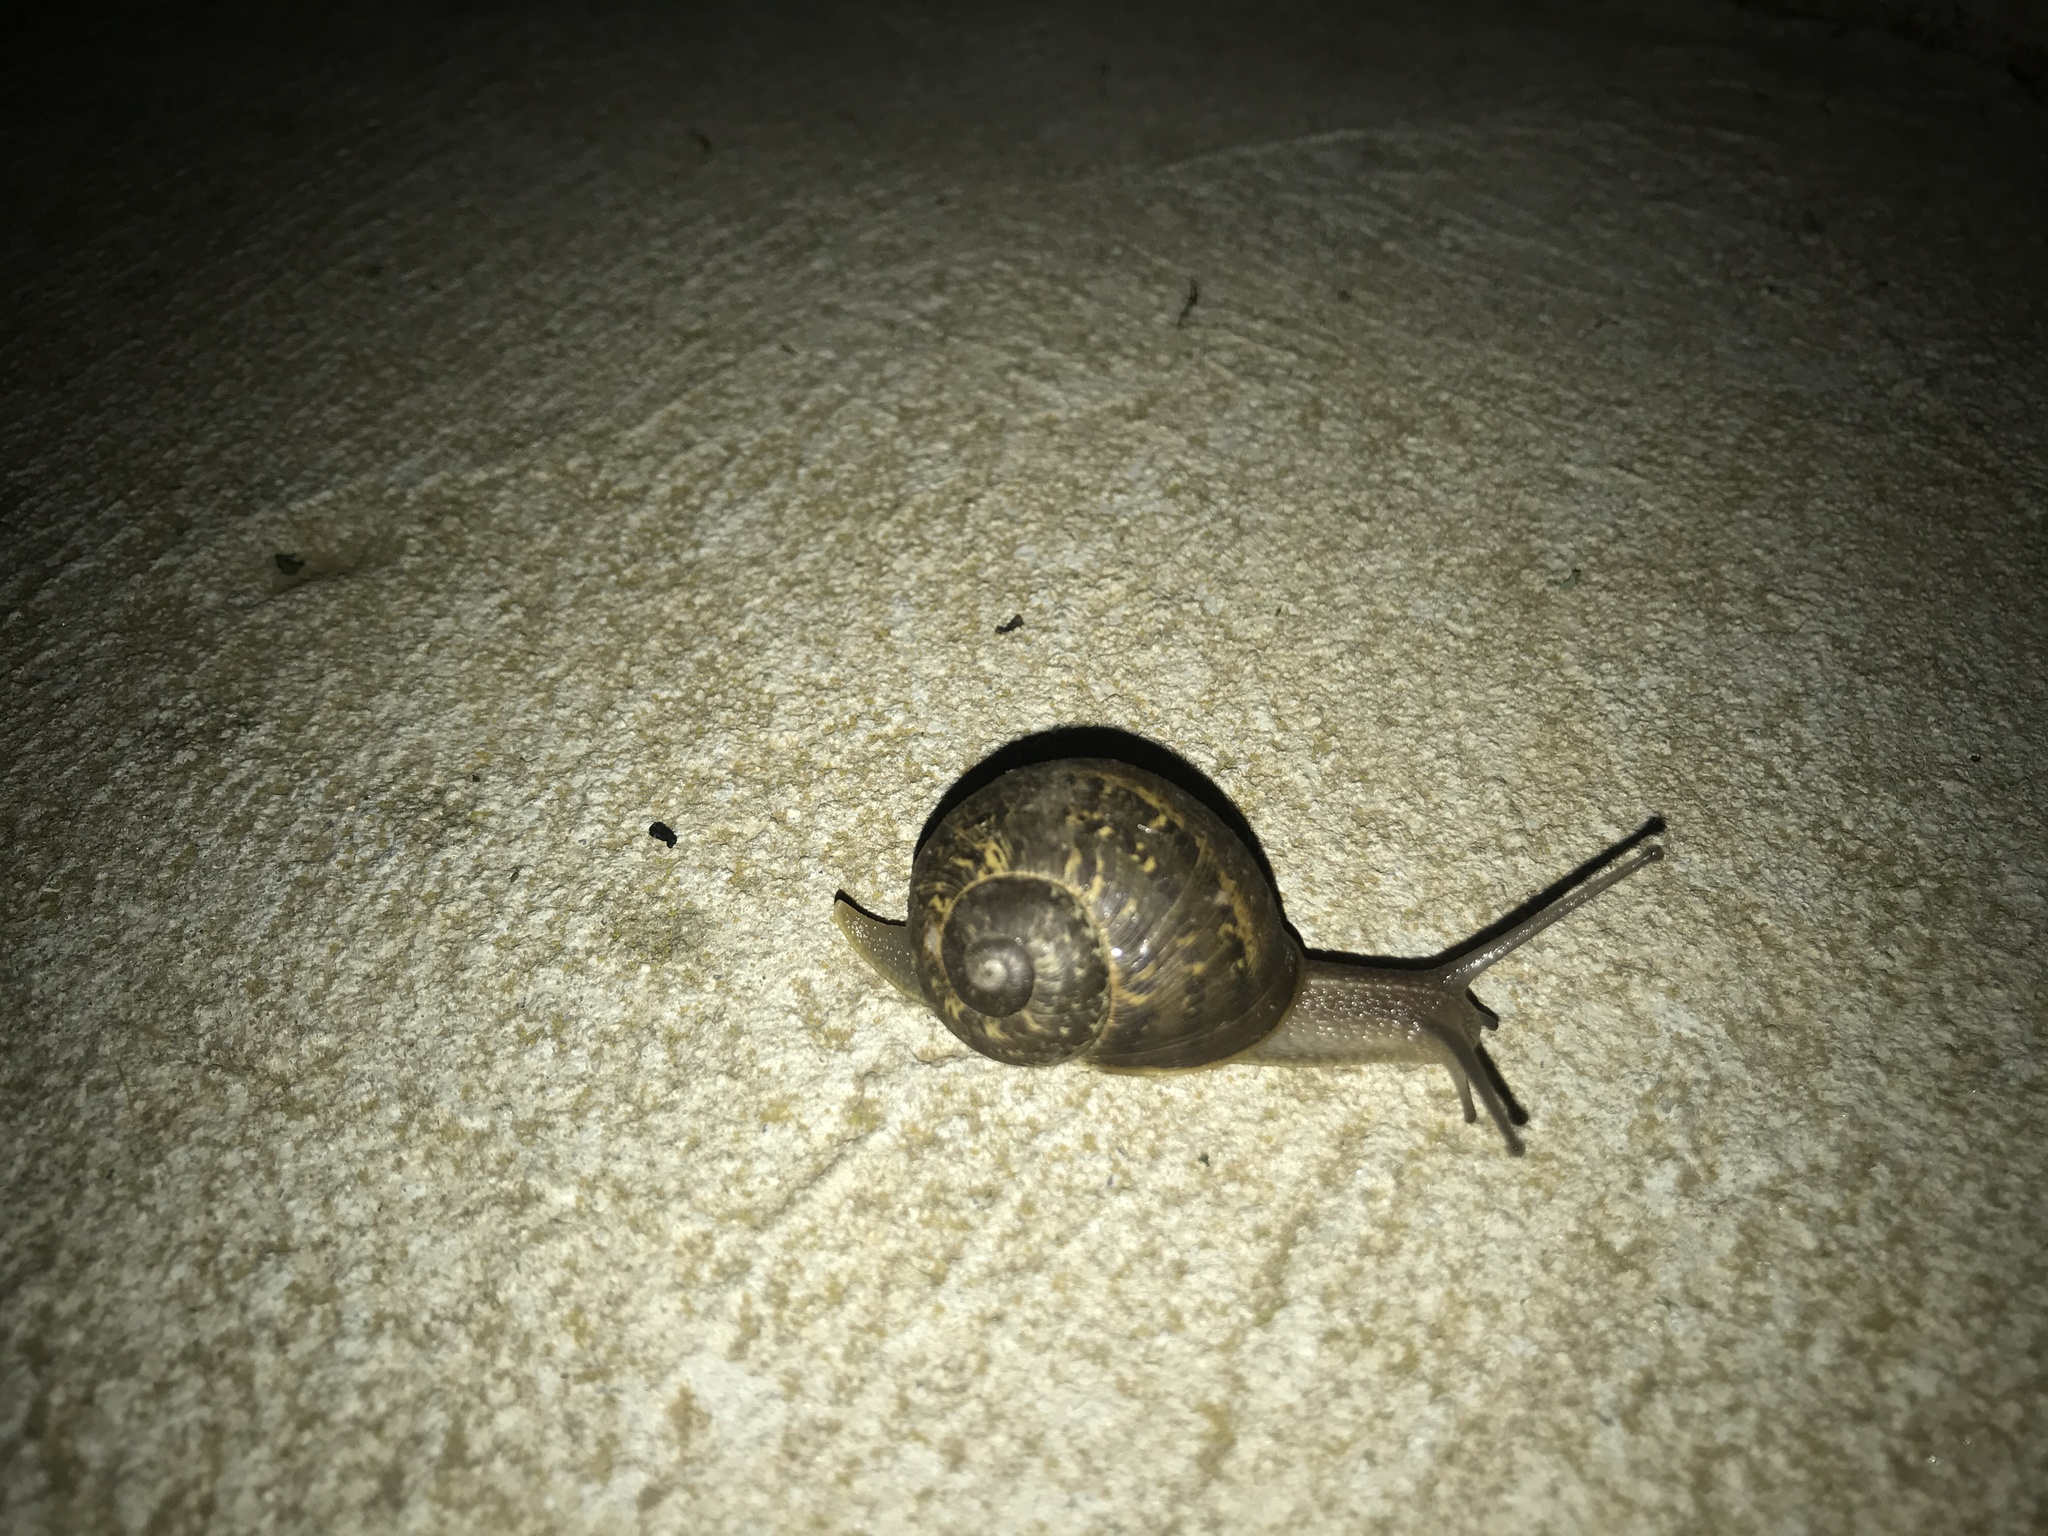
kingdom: Animalia
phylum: Mollusca
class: Gastropoda
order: Stylommatophora
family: Helicidae
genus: Cornu
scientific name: Cornu aspersum
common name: Brown garden snail
